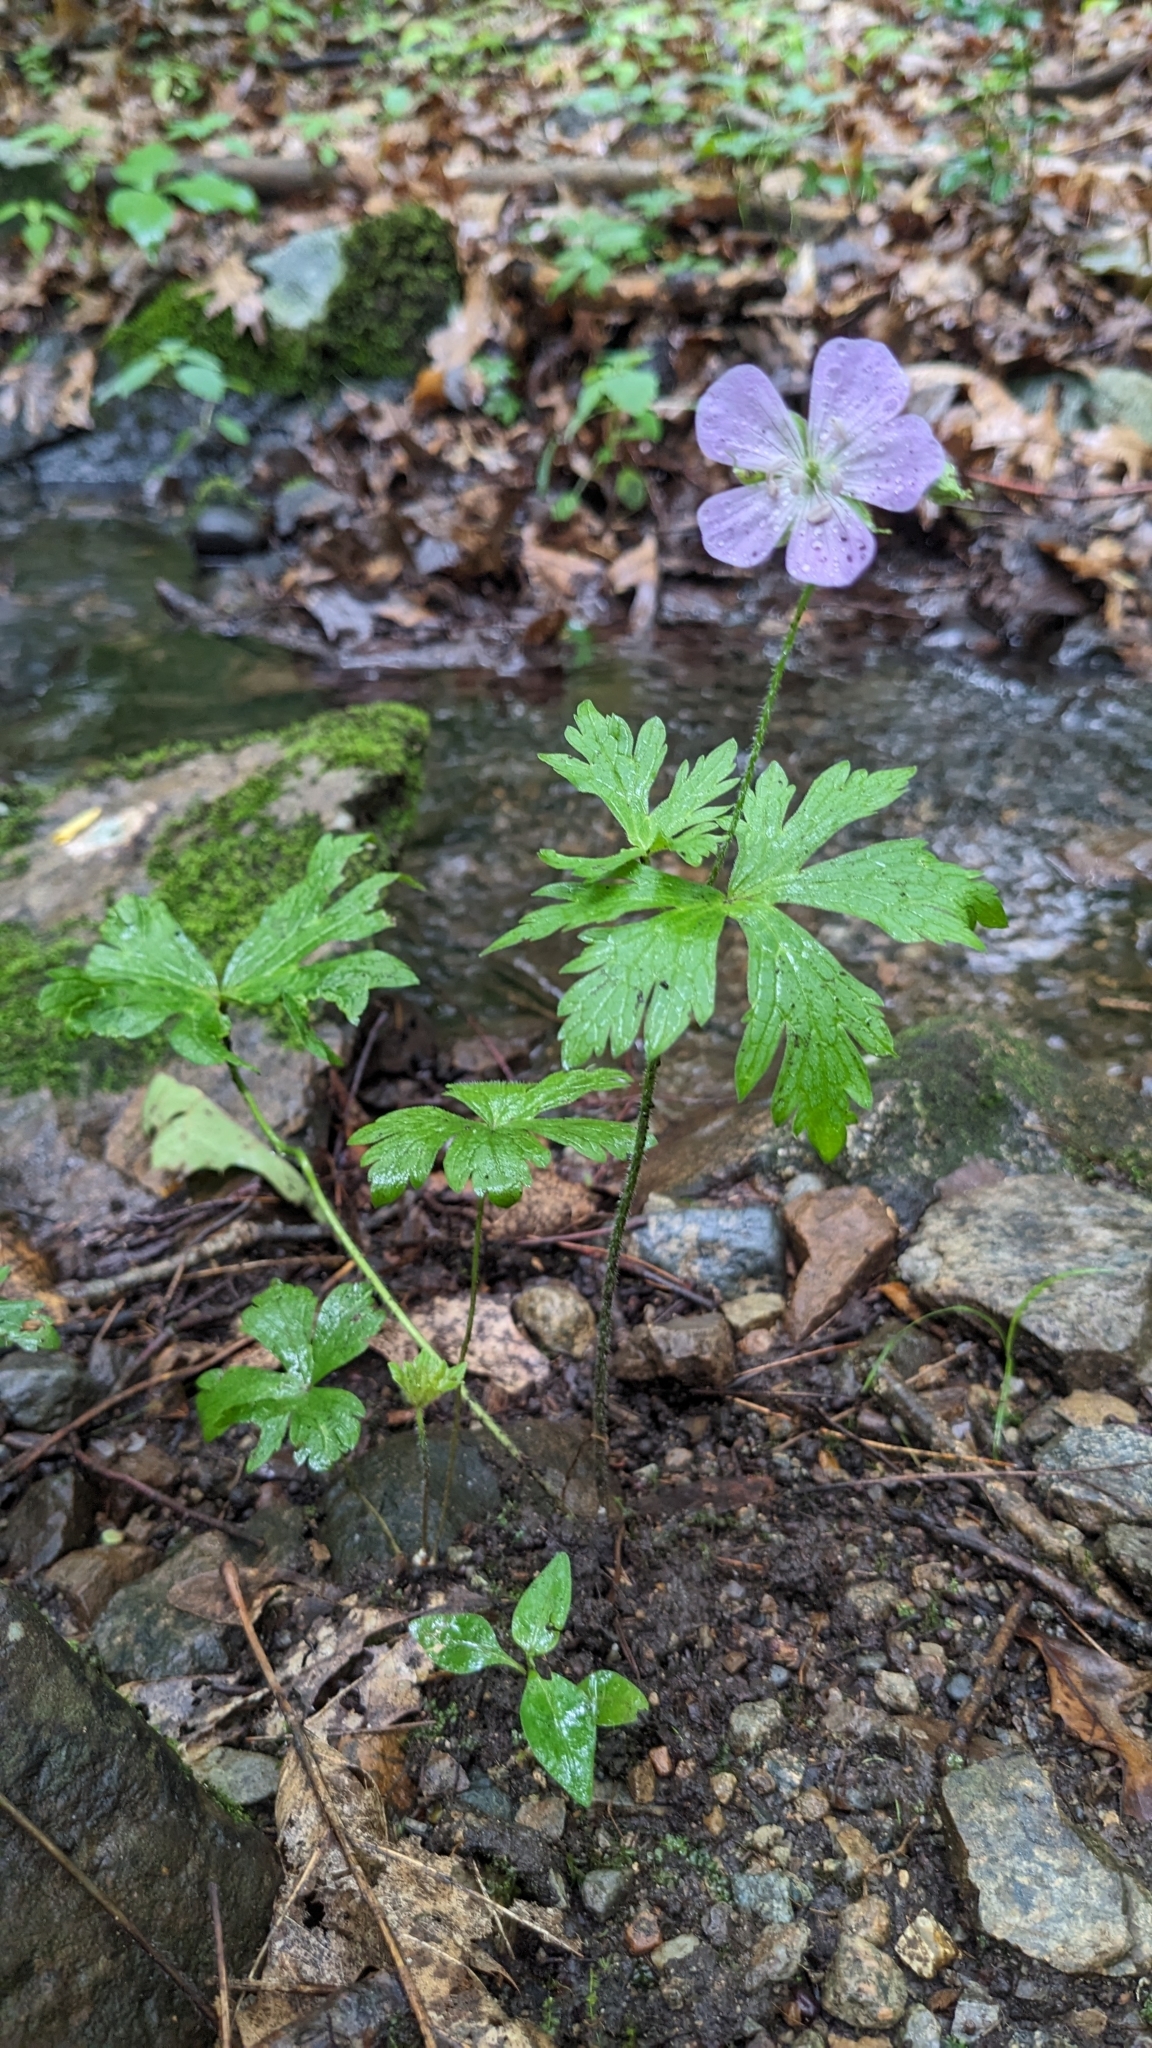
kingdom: Plantae
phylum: Tracheophyta
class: Magnoliopsida
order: Geraniales
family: Geraniaceae
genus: Geranium
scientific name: Geranium maculatum
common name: Spotted geranium
